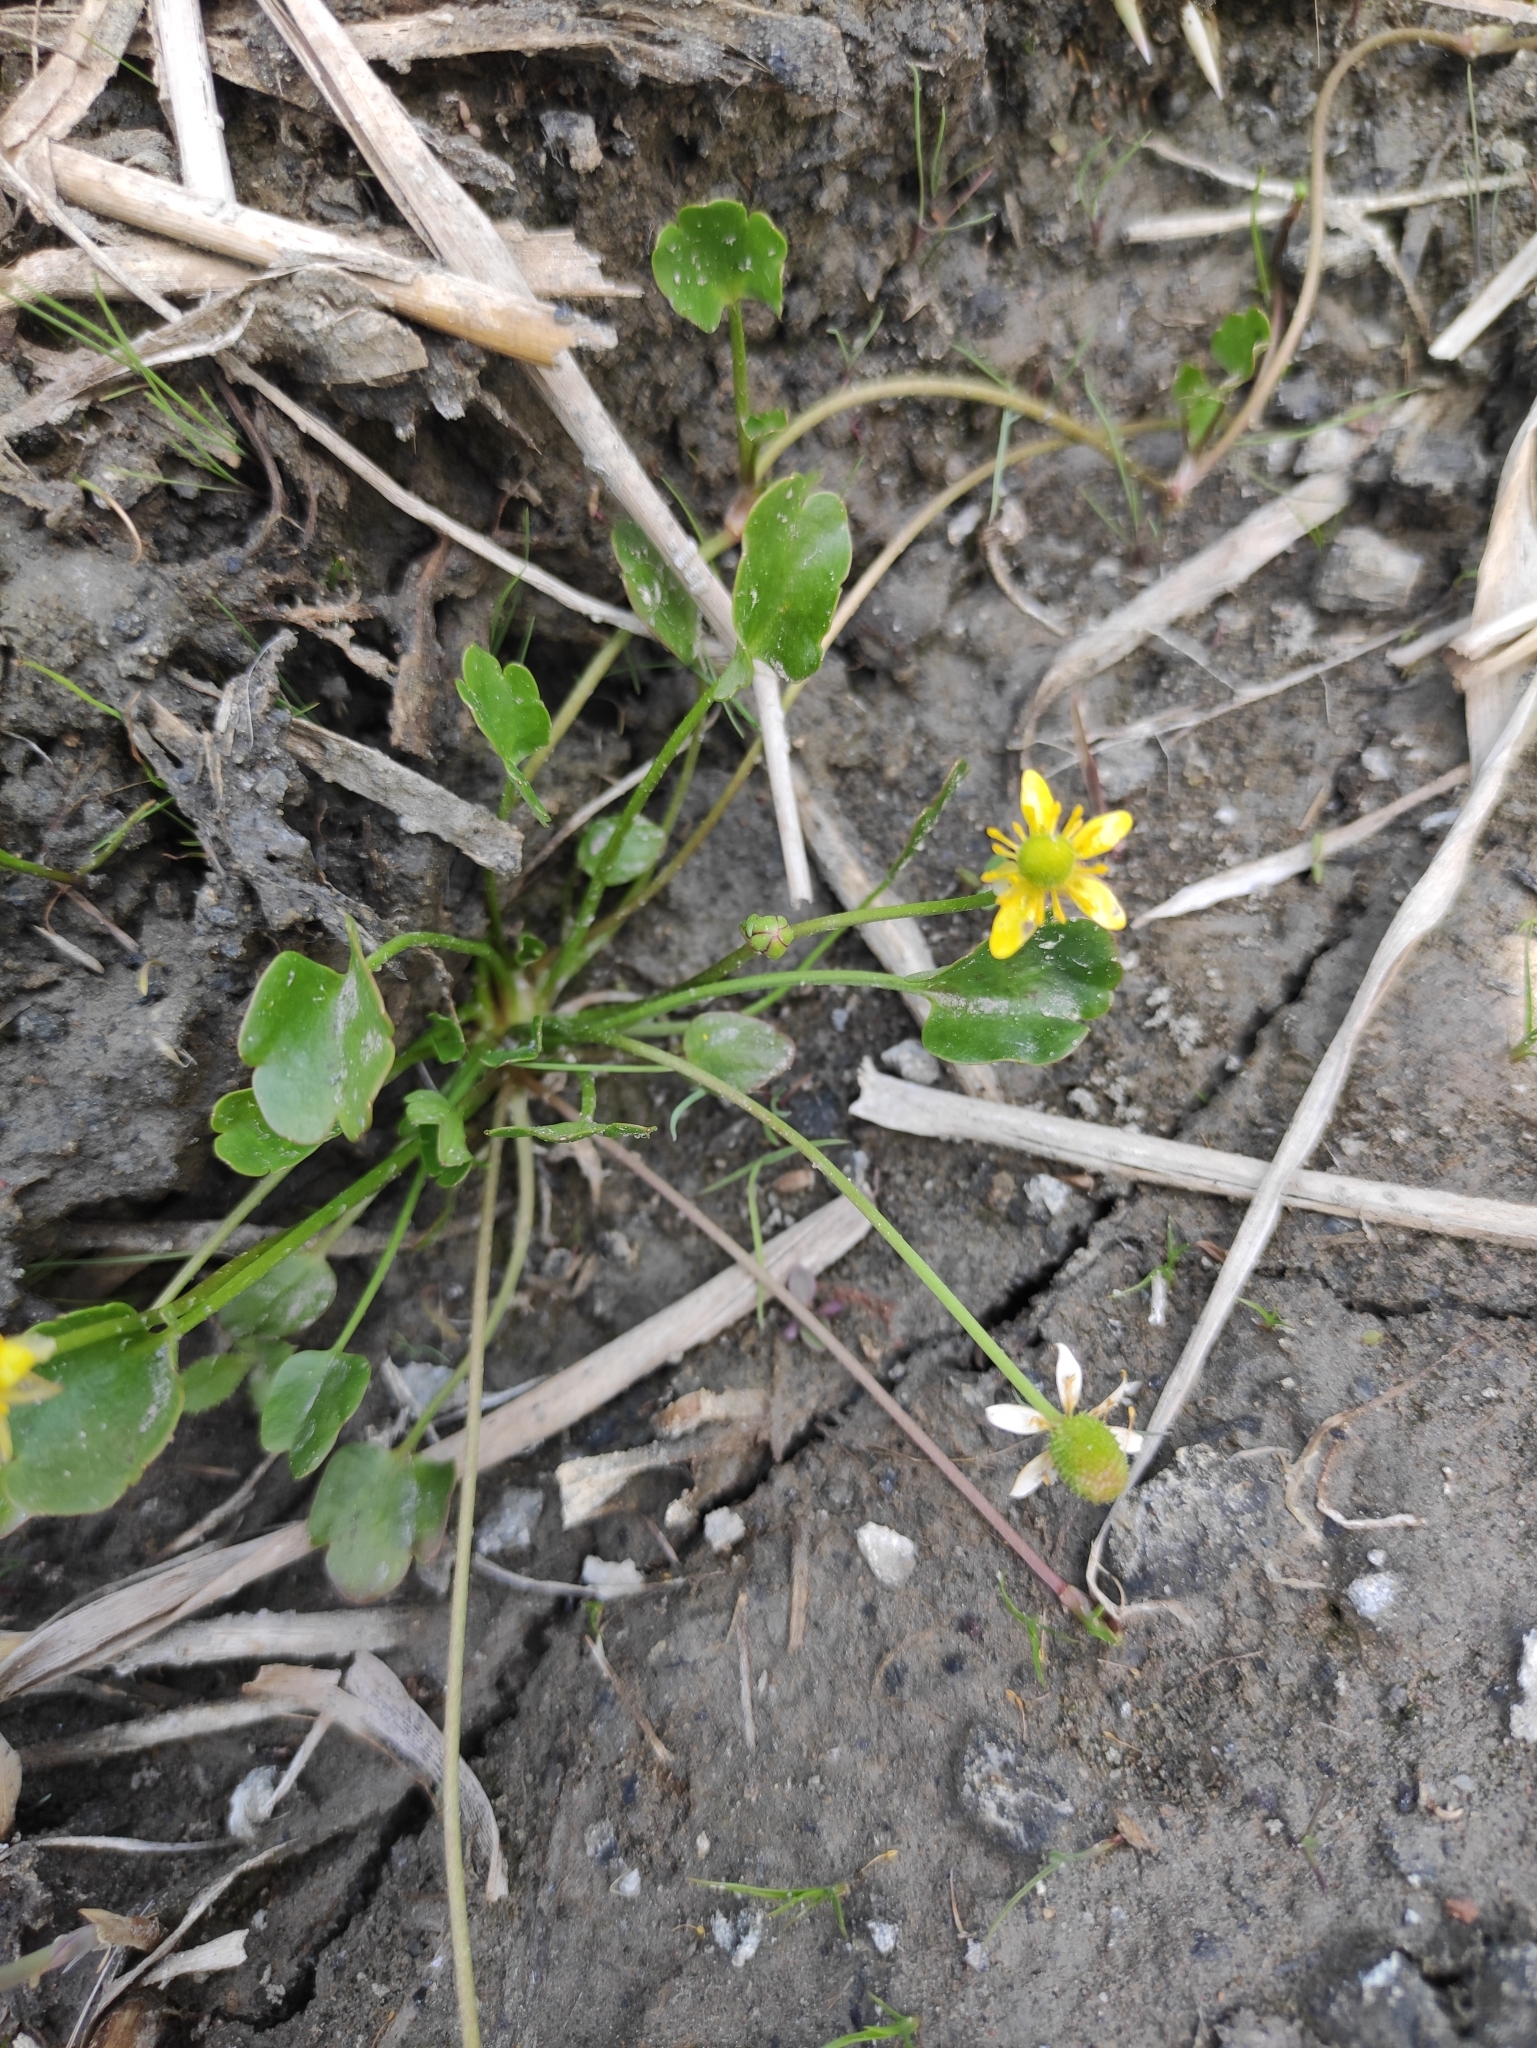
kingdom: Plantae
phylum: Tracheophyta
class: Magnoliopsida
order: Ranunculales
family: Ranunculaceae
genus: Halerpestes
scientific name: Halerpestes sarmentosus
